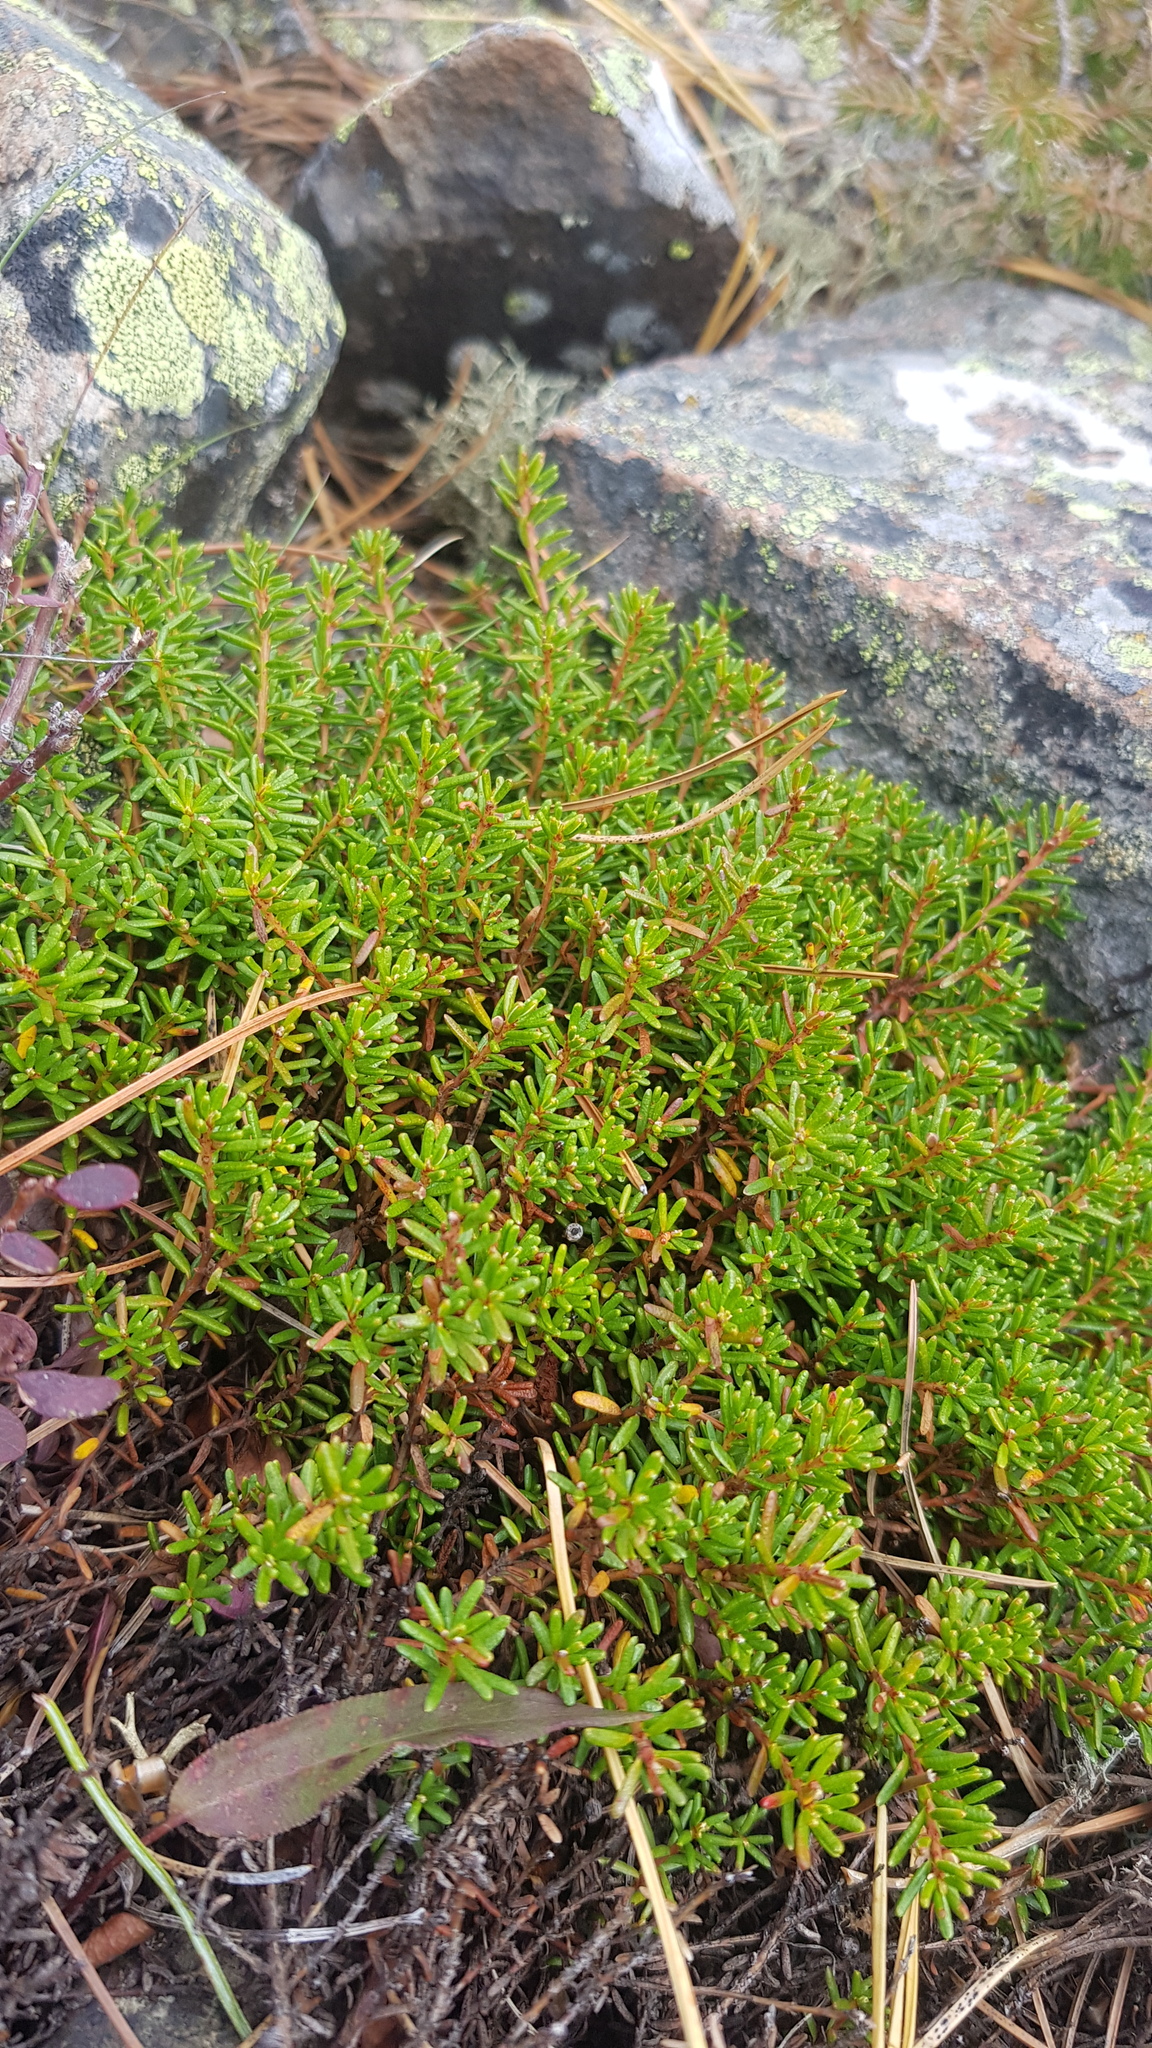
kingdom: Plantae
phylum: Tracheophyta
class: Magnoliopsida
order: Ericales
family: Ericaceae
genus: Empetrum
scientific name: Empetrum nigrum
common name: Black crowberry
